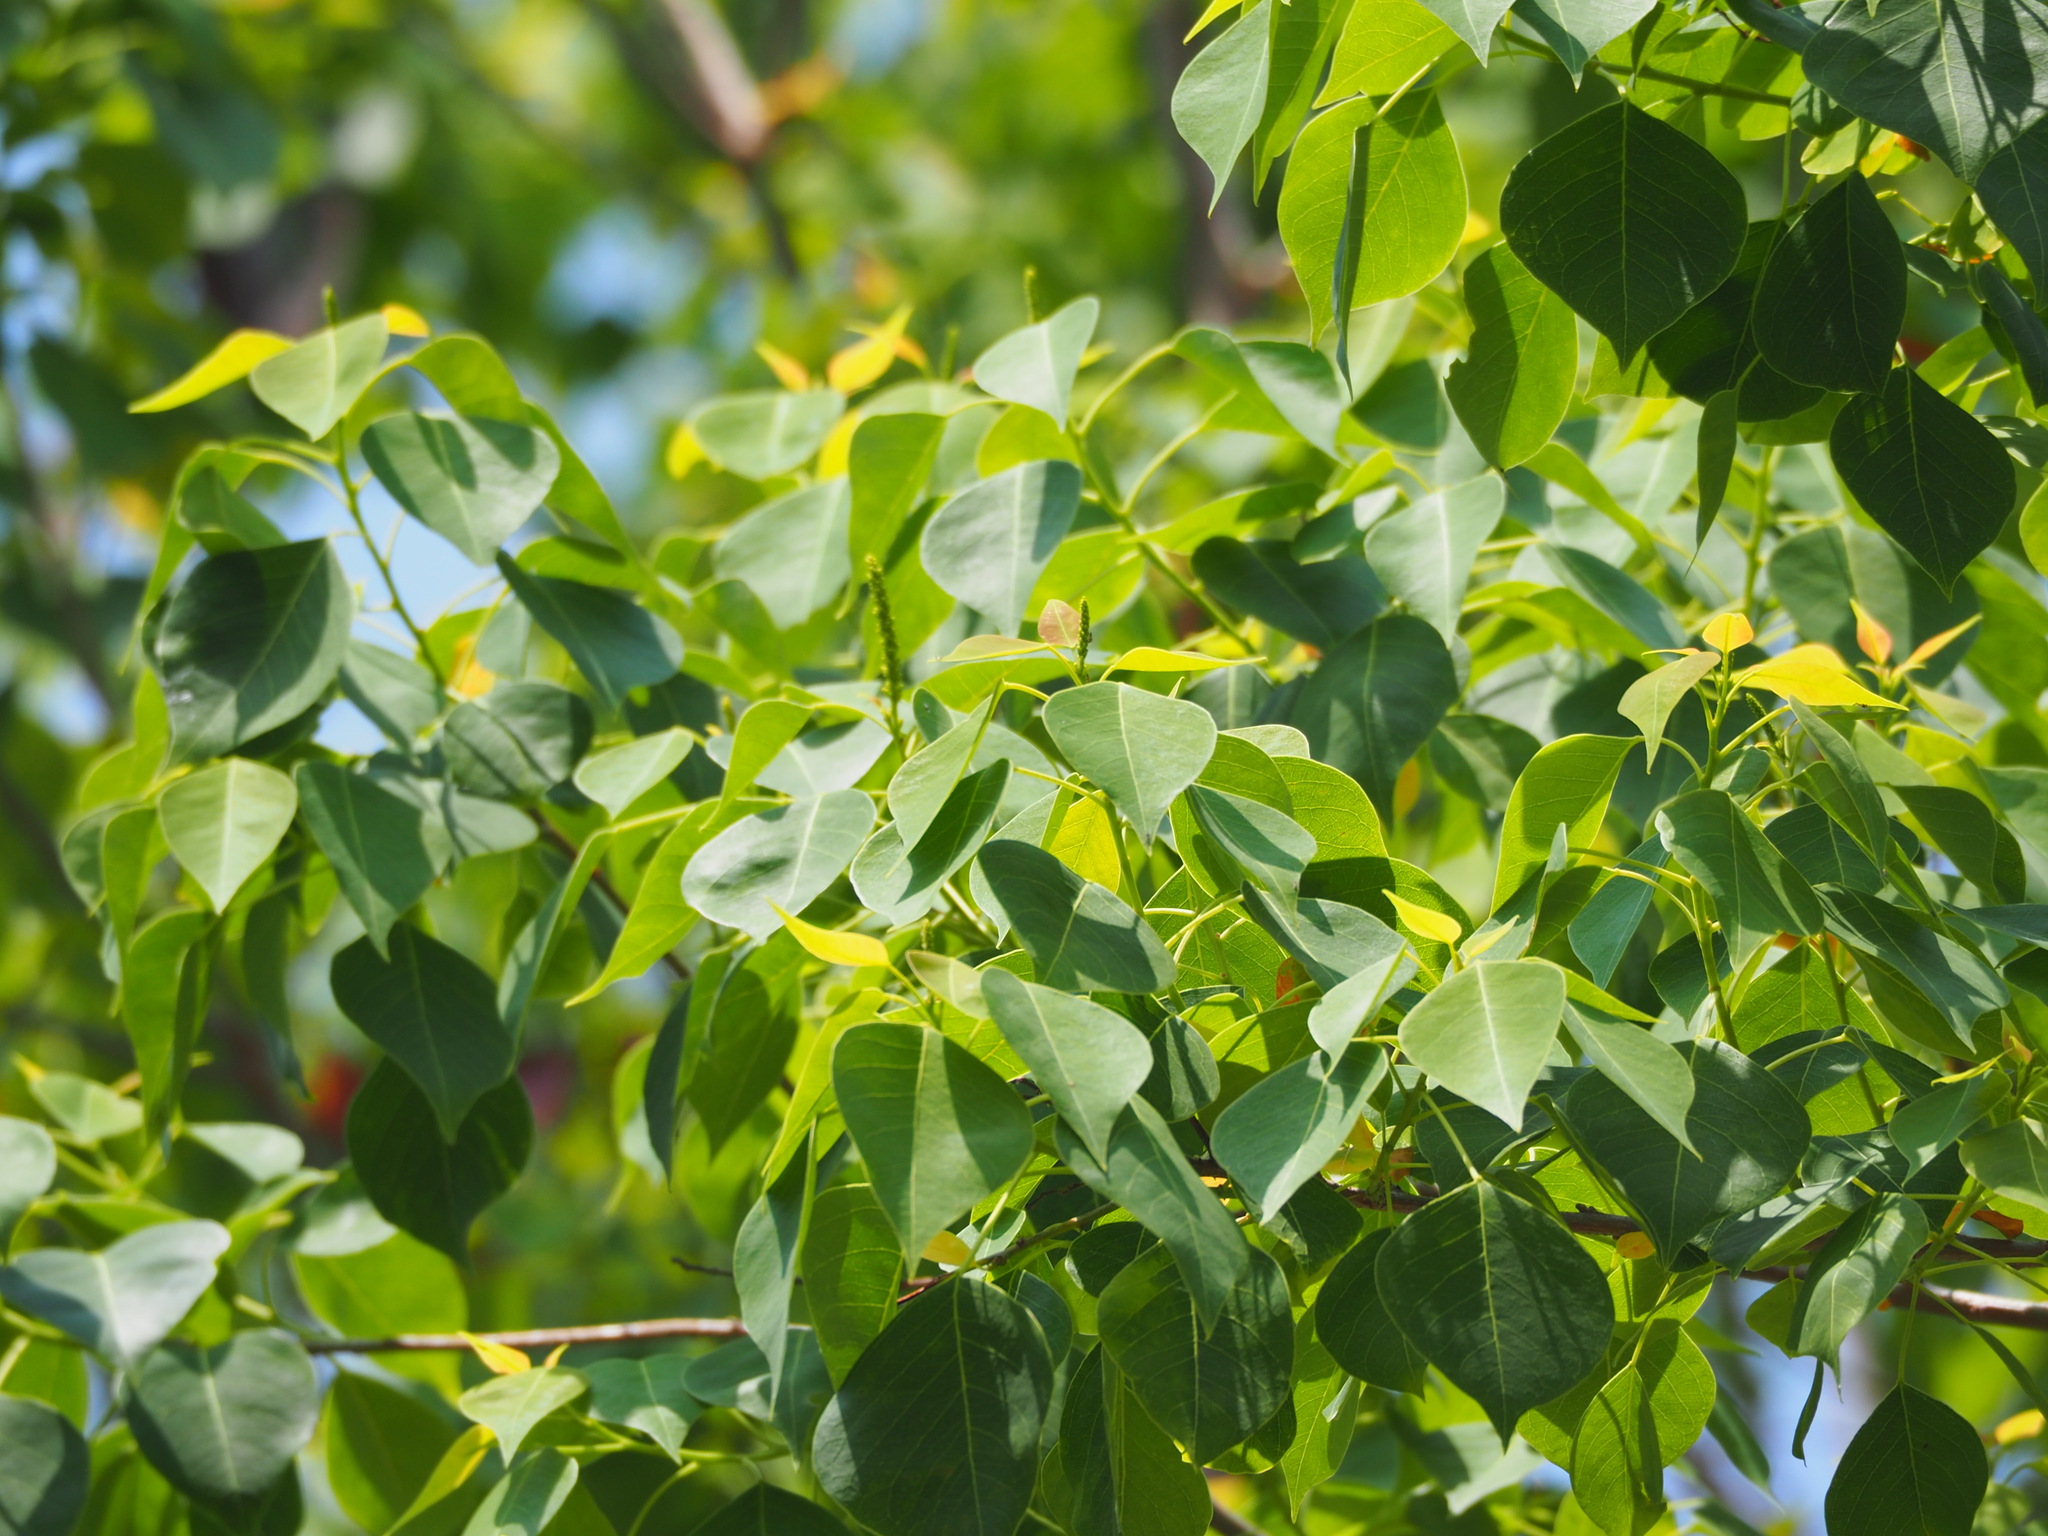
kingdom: Plantae
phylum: Tracheophyta
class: Magnoliopsida
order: Malpighiales
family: Euphorbiaceae
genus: Triadica
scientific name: Triadica sebifera
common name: Chinese tallow
